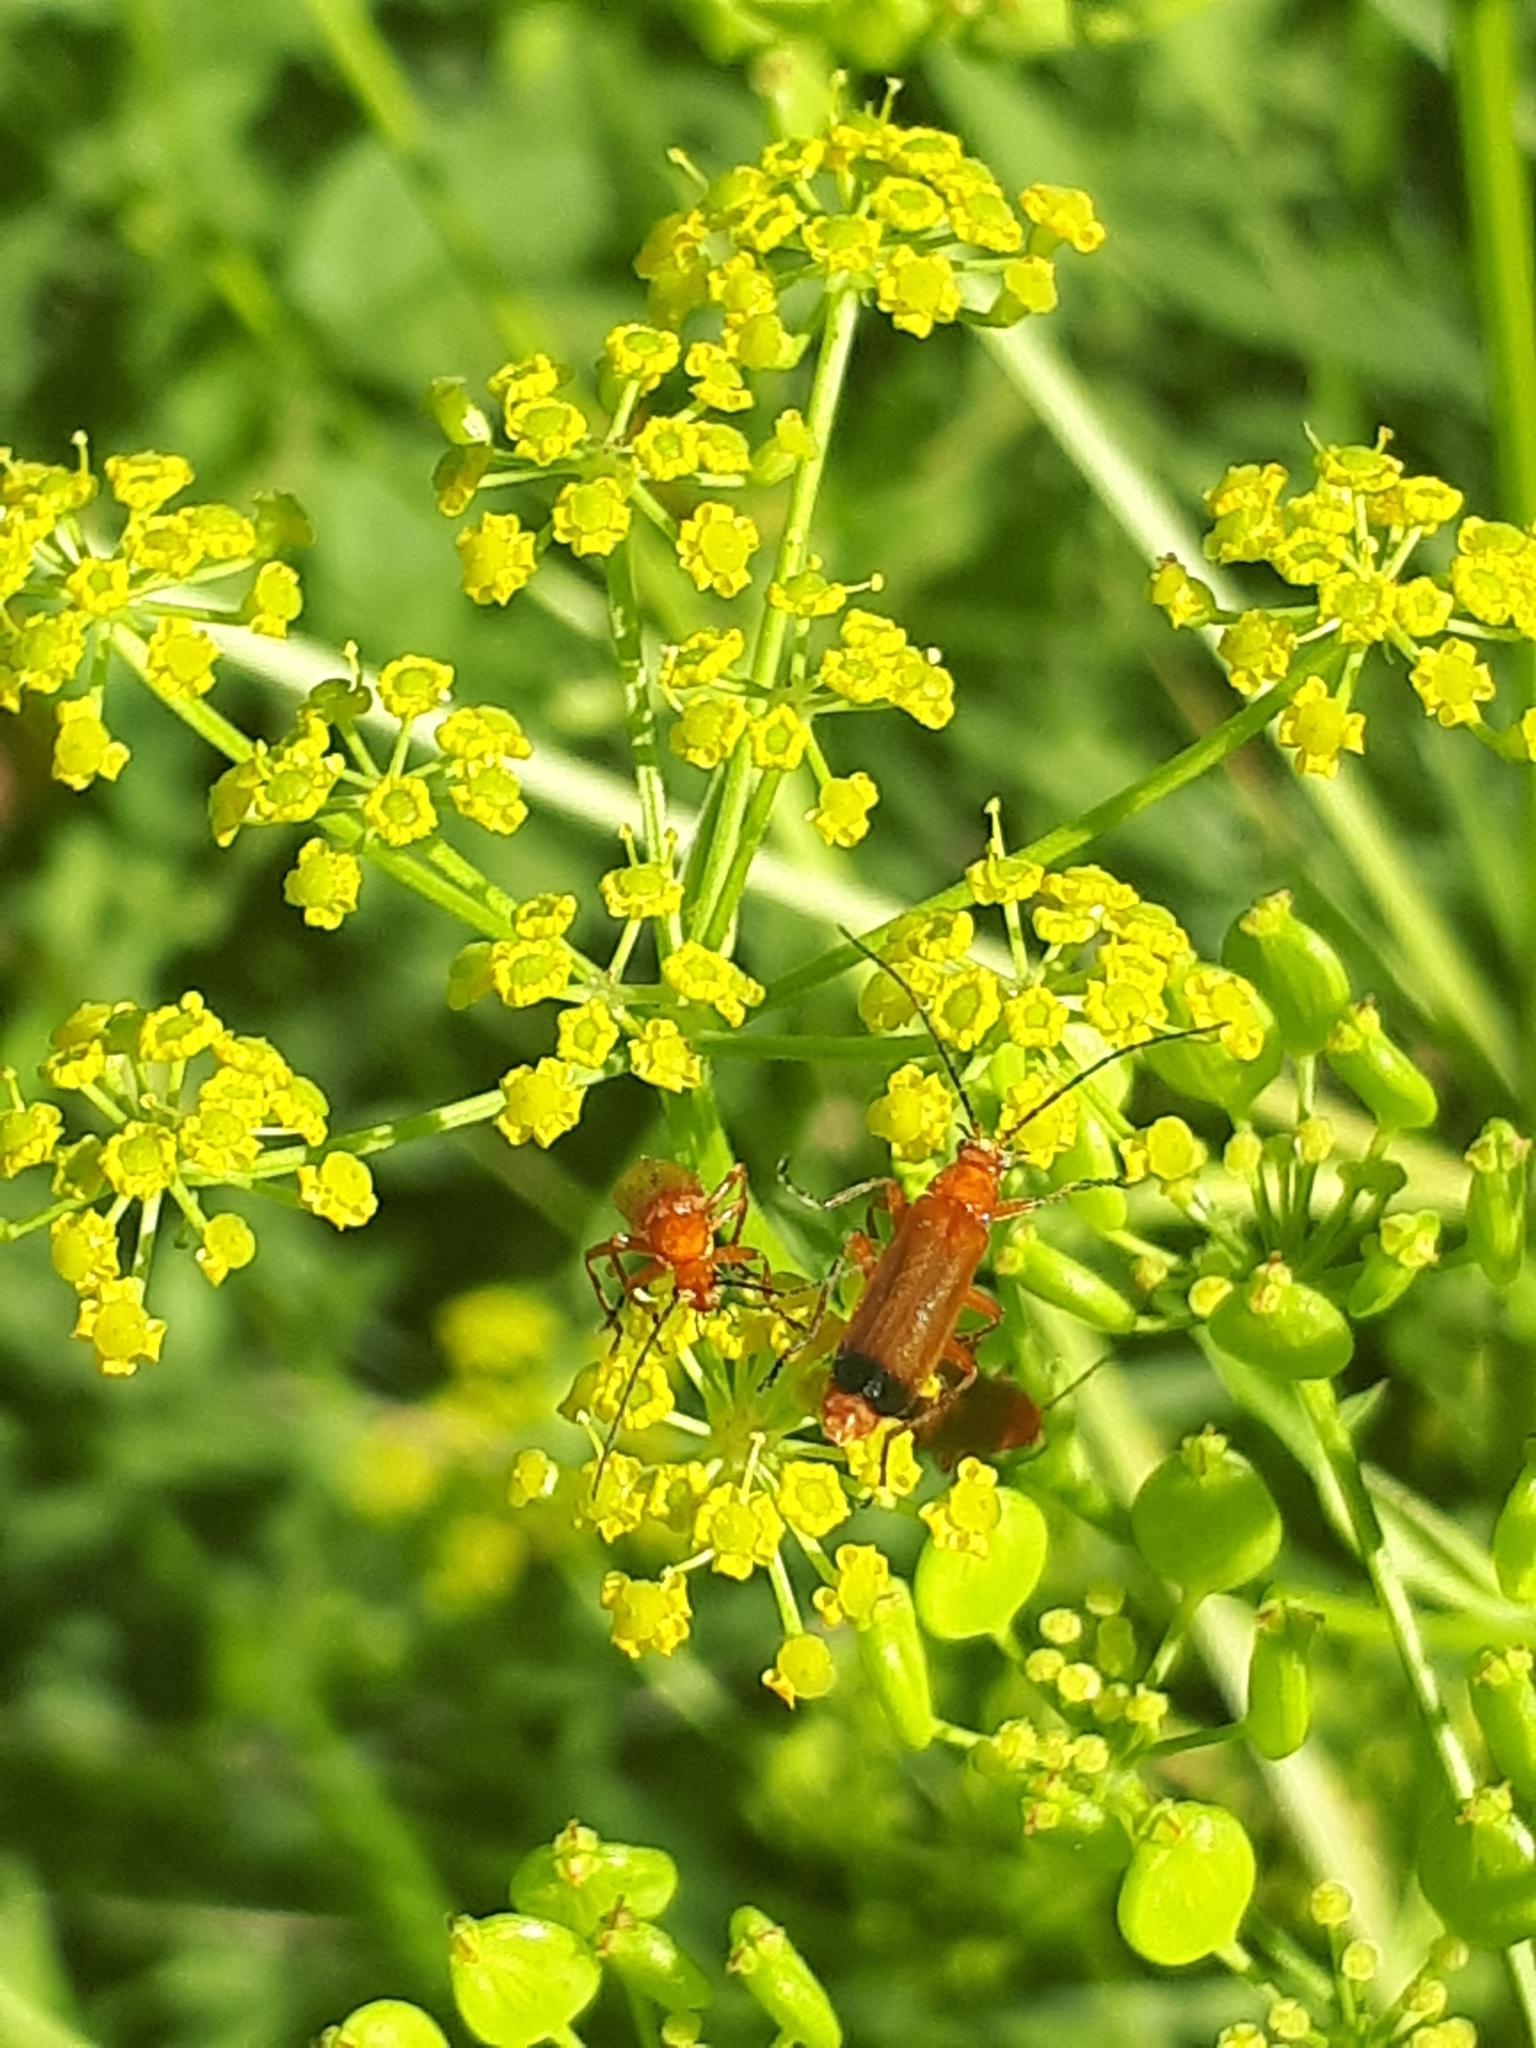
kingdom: Animalia
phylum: Arthropoda
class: Insecta
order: Coleoptera
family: Cantharidae
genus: Rhagonycha
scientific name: Rhagonycha fulva
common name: Common red soldier beetle
